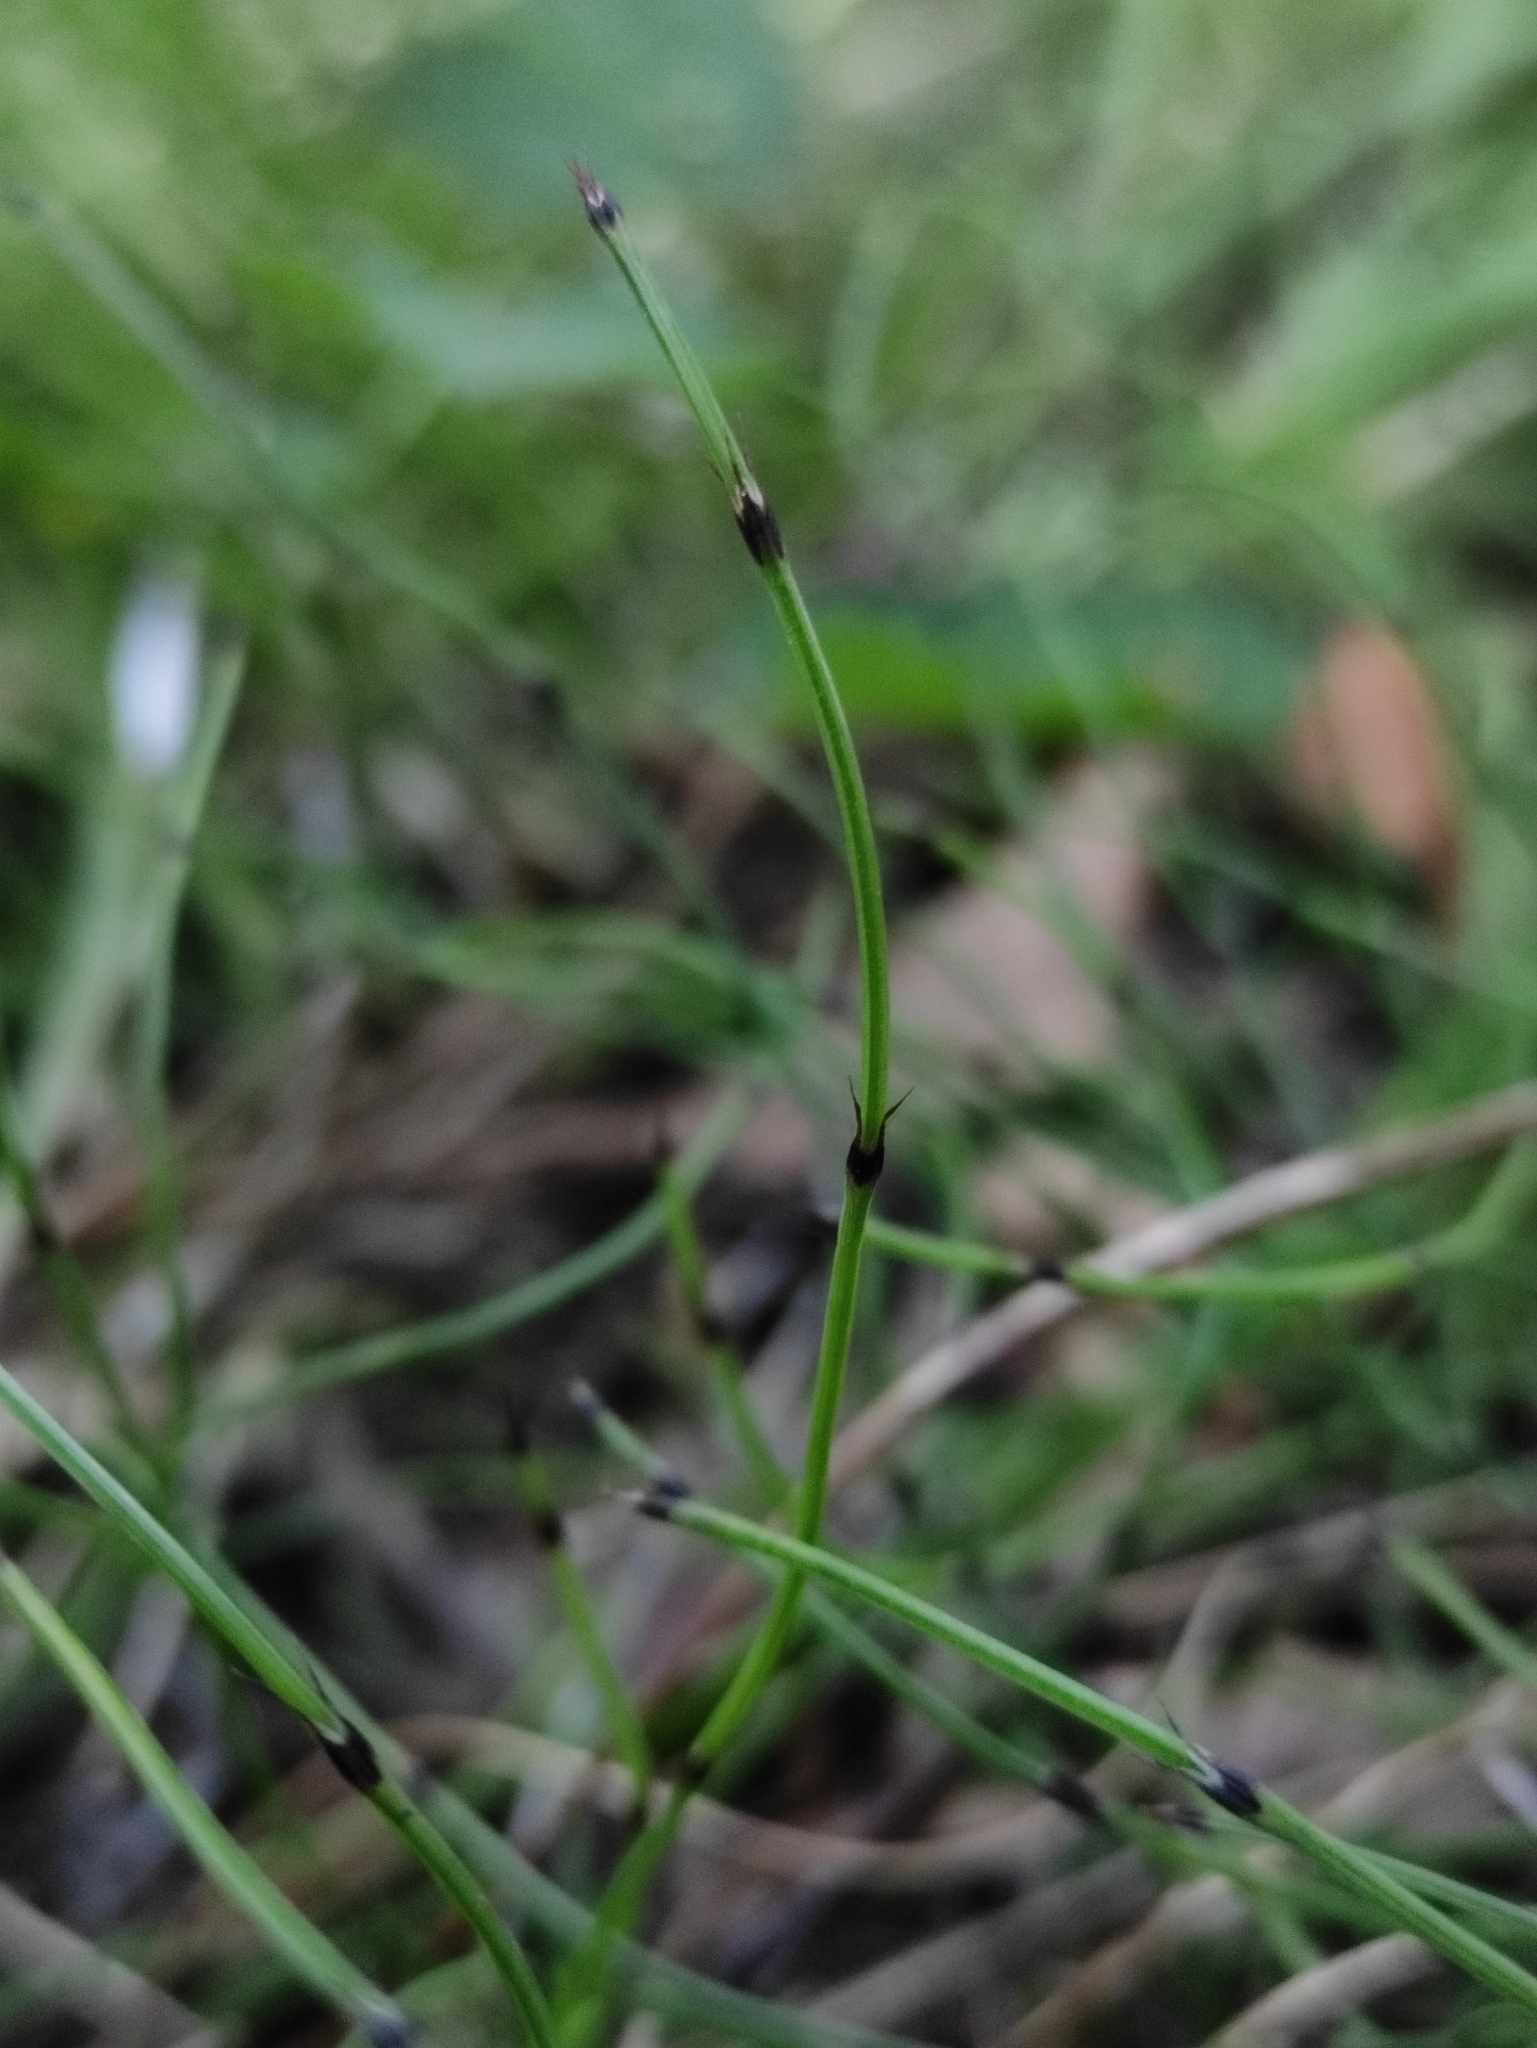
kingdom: Plantae
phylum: Tracheophyta
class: Polypodiopsida
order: Equisetales
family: Equisetaceae
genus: Equisetum
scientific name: Equisetum scirpoides
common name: Delicate horsetail
